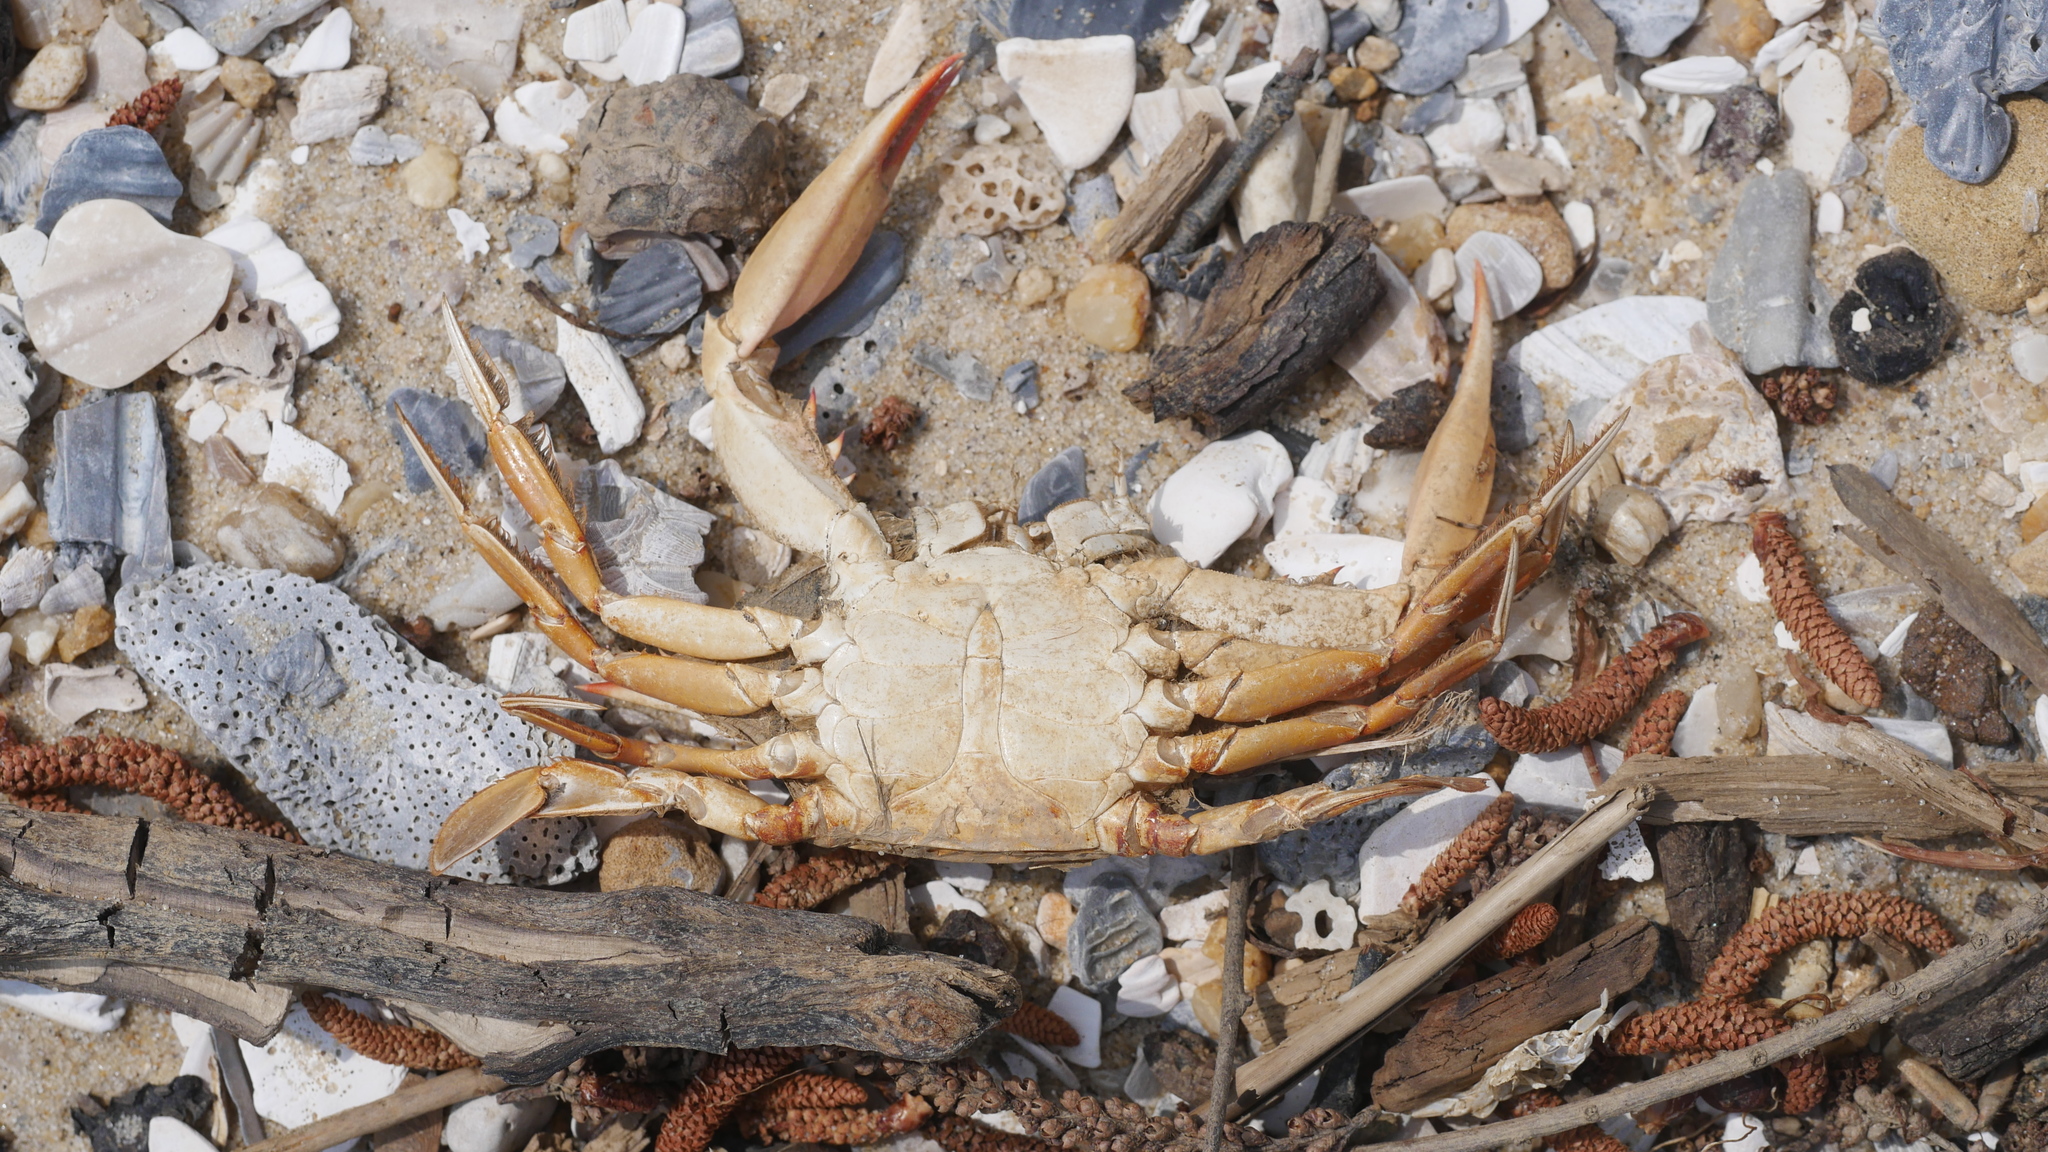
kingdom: Animalia
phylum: Arthropoda
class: Malacostraca
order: Decapoda
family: Portunidae
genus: Callinectes
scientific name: Callinectes sapidus
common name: Blue crab
